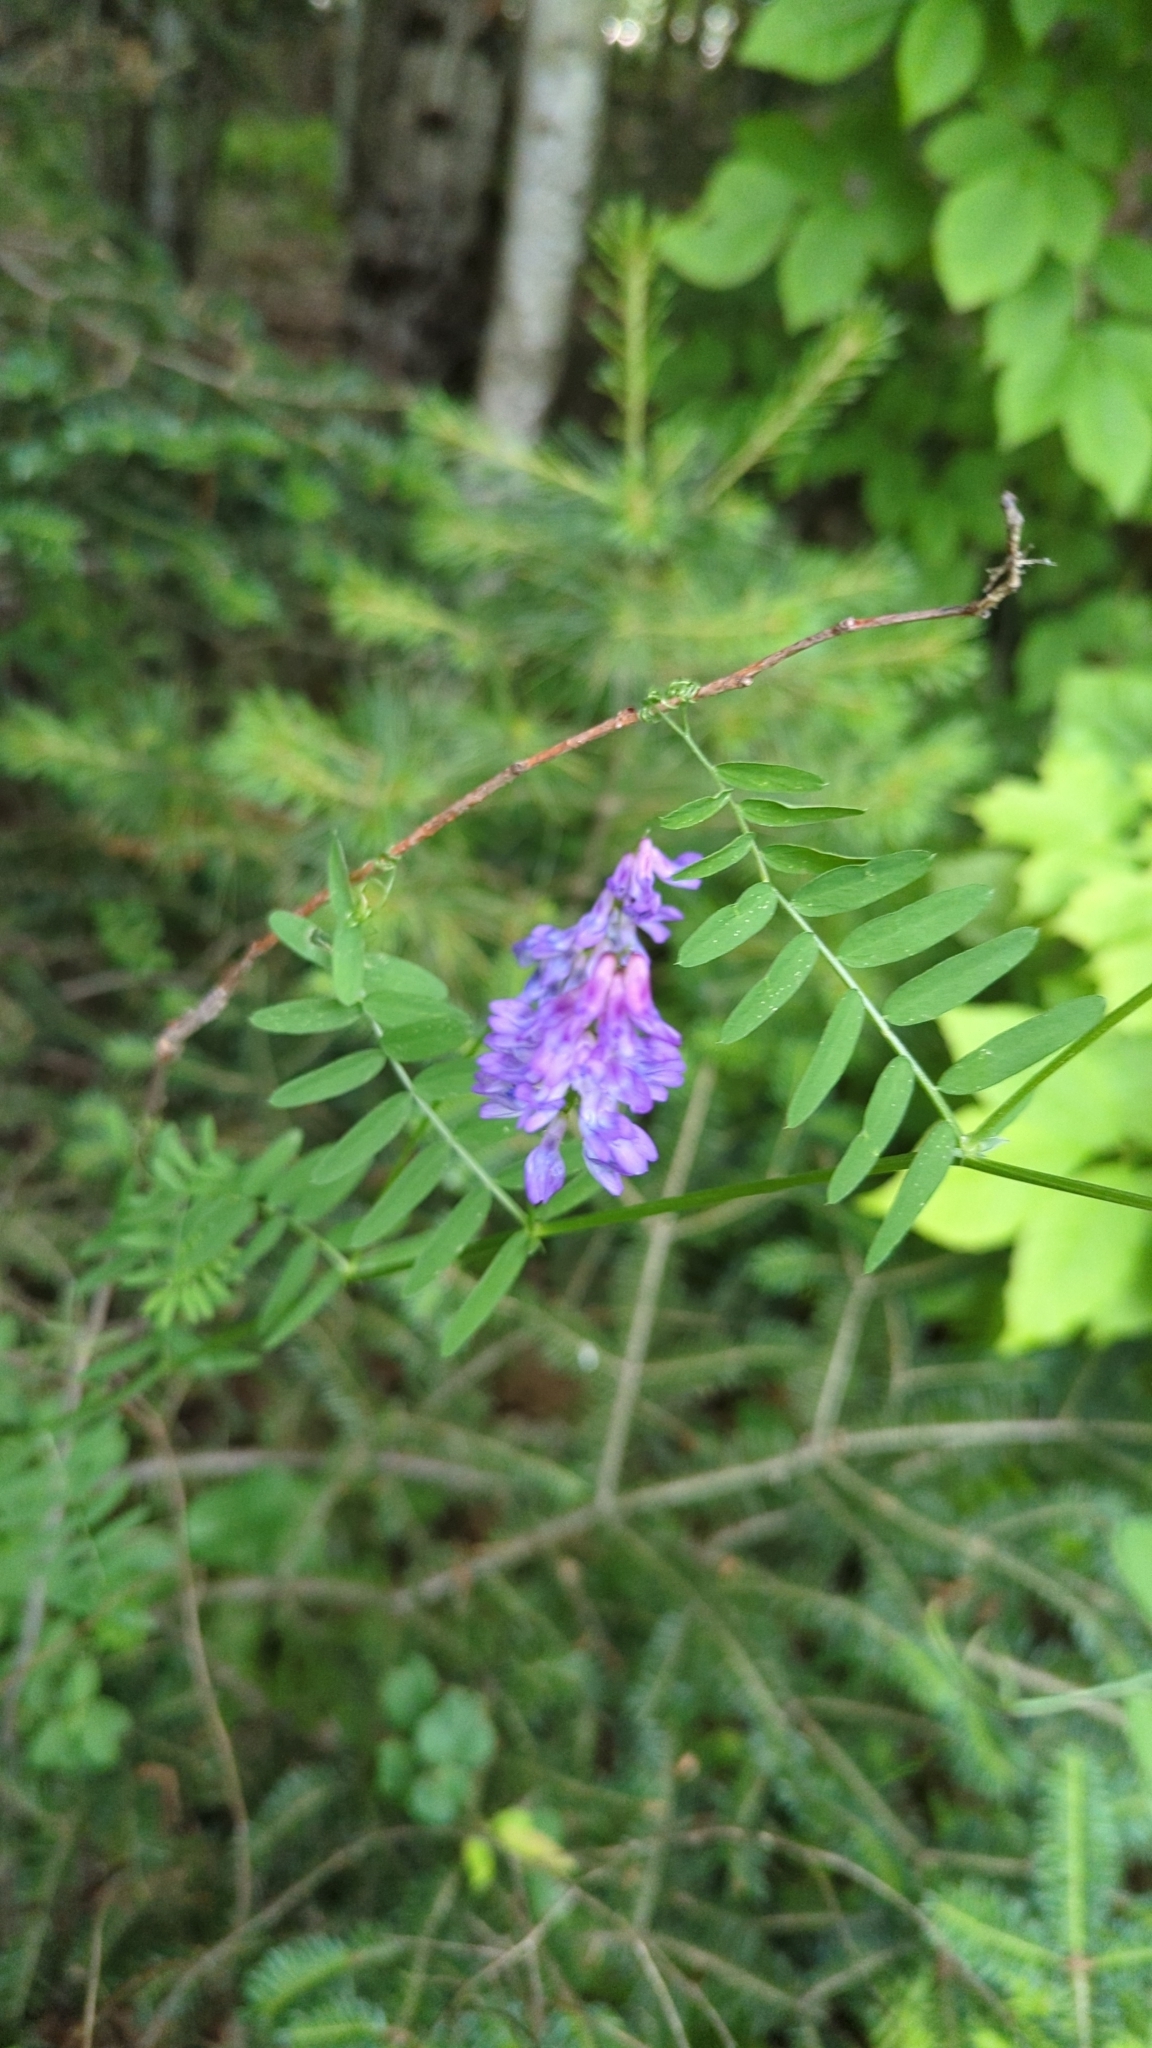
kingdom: Plantae
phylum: Tracheophyta
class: Magnoliopsida
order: Fabales
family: Fabaceae
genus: Vicia
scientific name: Vicia cracca
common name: Bird vetch
